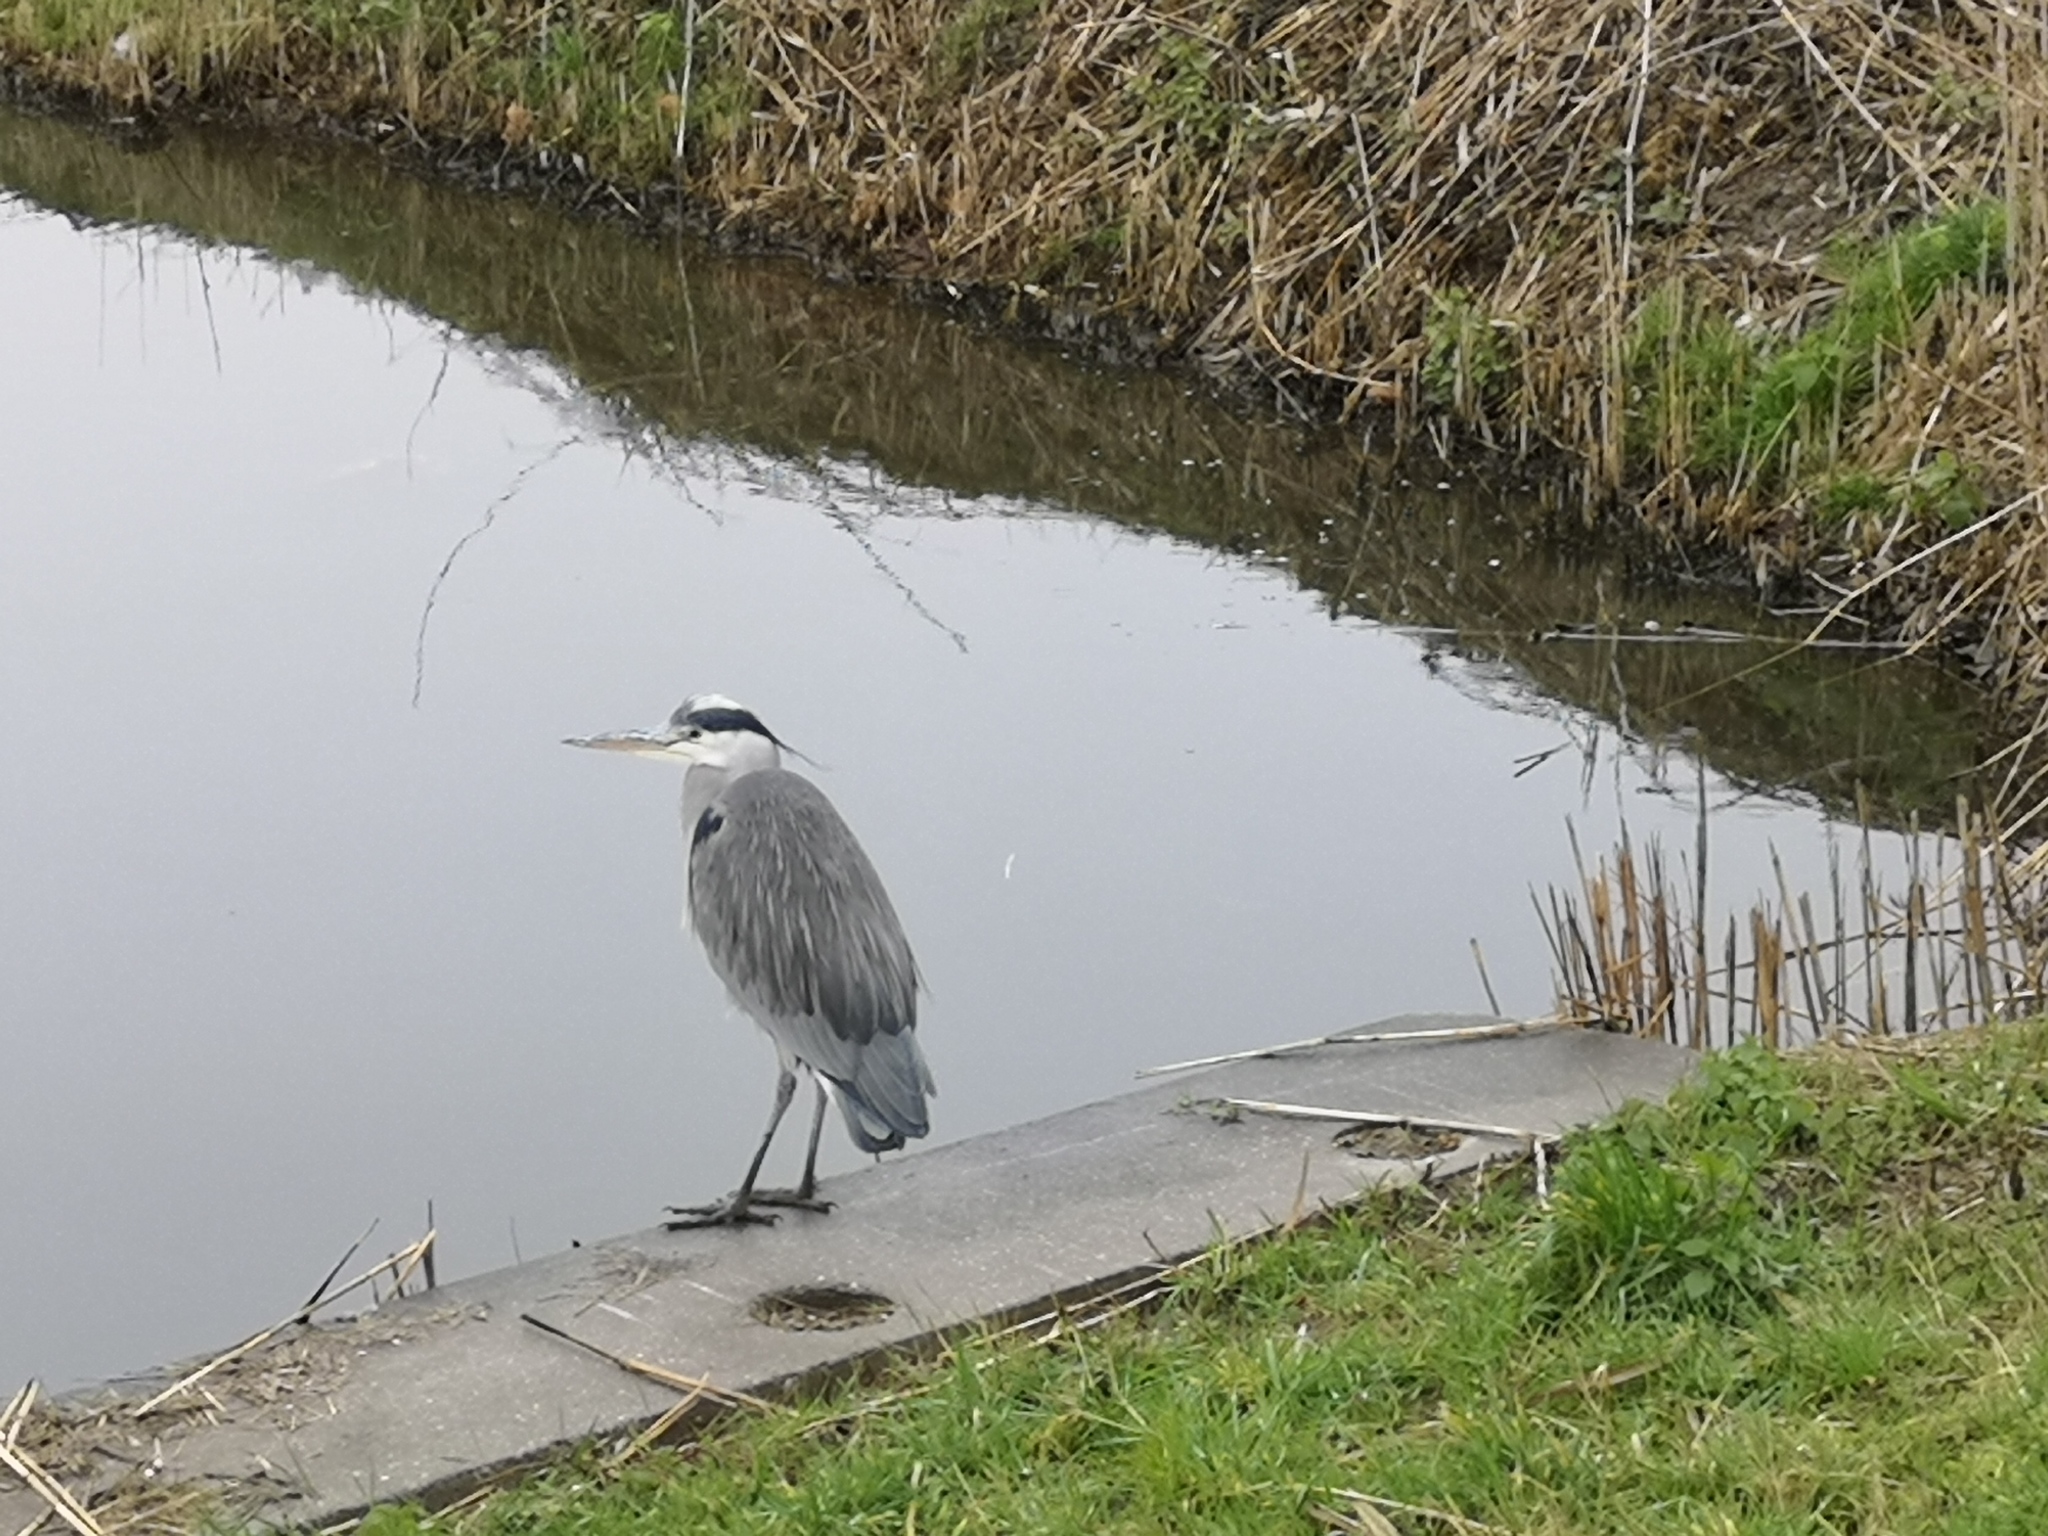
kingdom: Animalia
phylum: Chordata
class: Aves
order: Pelecaniformes
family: Ardeidae
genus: Ardea
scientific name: Ardea cinerea
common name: Grey heron
